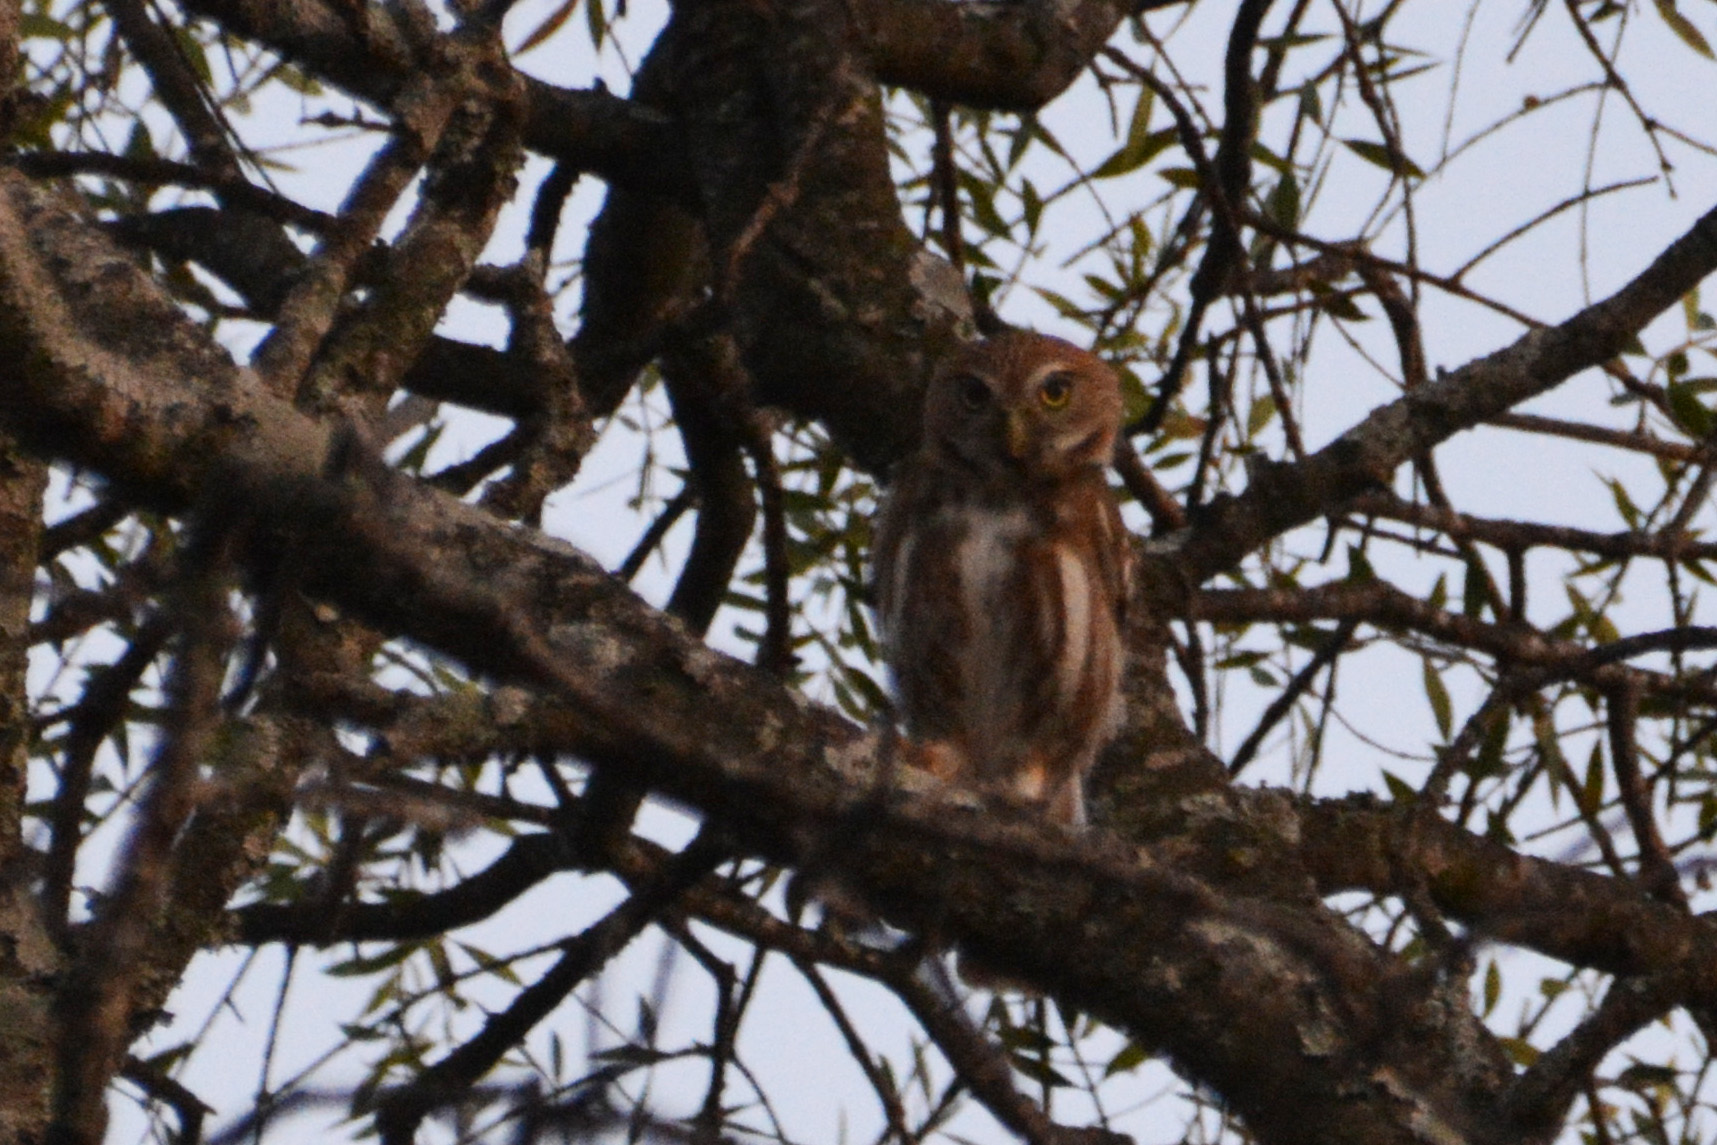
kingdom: Animalia
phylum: Chordata
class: Aves
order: Strigiformes
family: Strigidae
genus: Glaucidium
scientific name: Glaucidium brasilianum
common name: Ferruginous pygmy-owl
